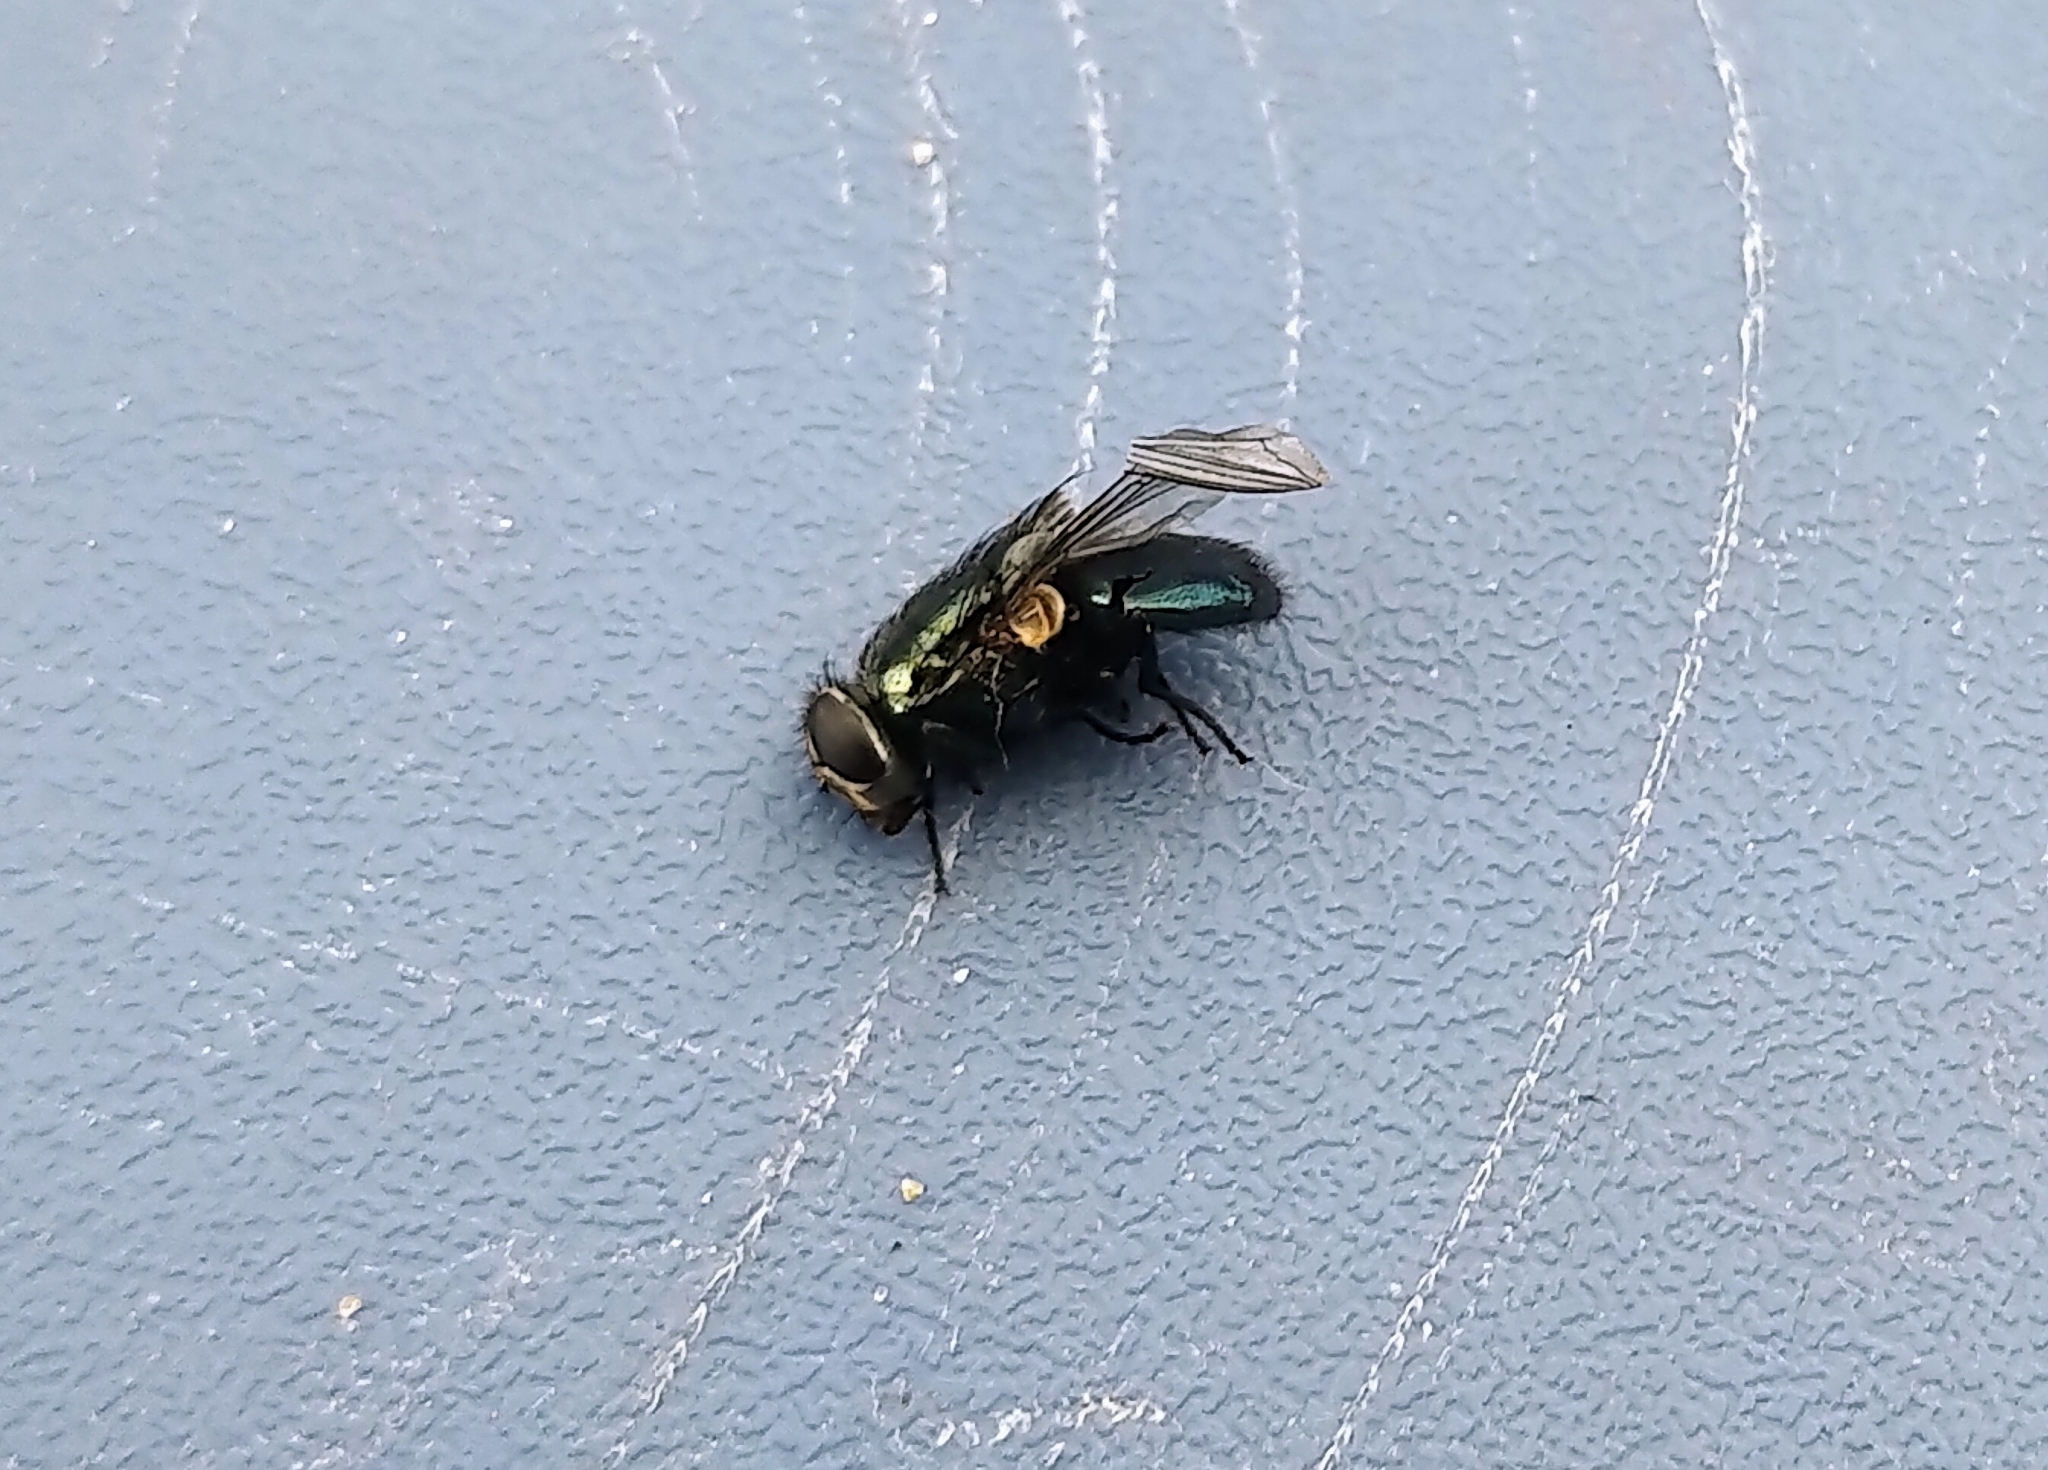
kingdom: Animalia
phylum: Arthropoda
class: Insecta
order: Diptera
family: Calliphoridae
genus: Phormia
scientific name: Phormia regina
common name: Black blow fly
